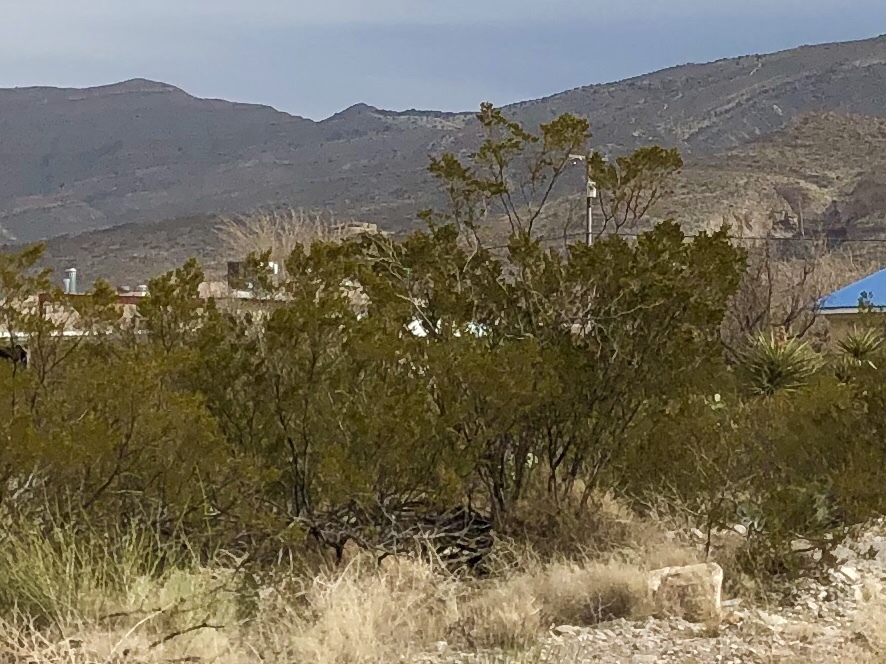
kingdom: Plantae
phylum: Tracheophyta
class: Magnoliopsida
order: Zygophyllales
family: Zygophyllaceae
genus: Larrea
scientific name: Larrea tridentata
